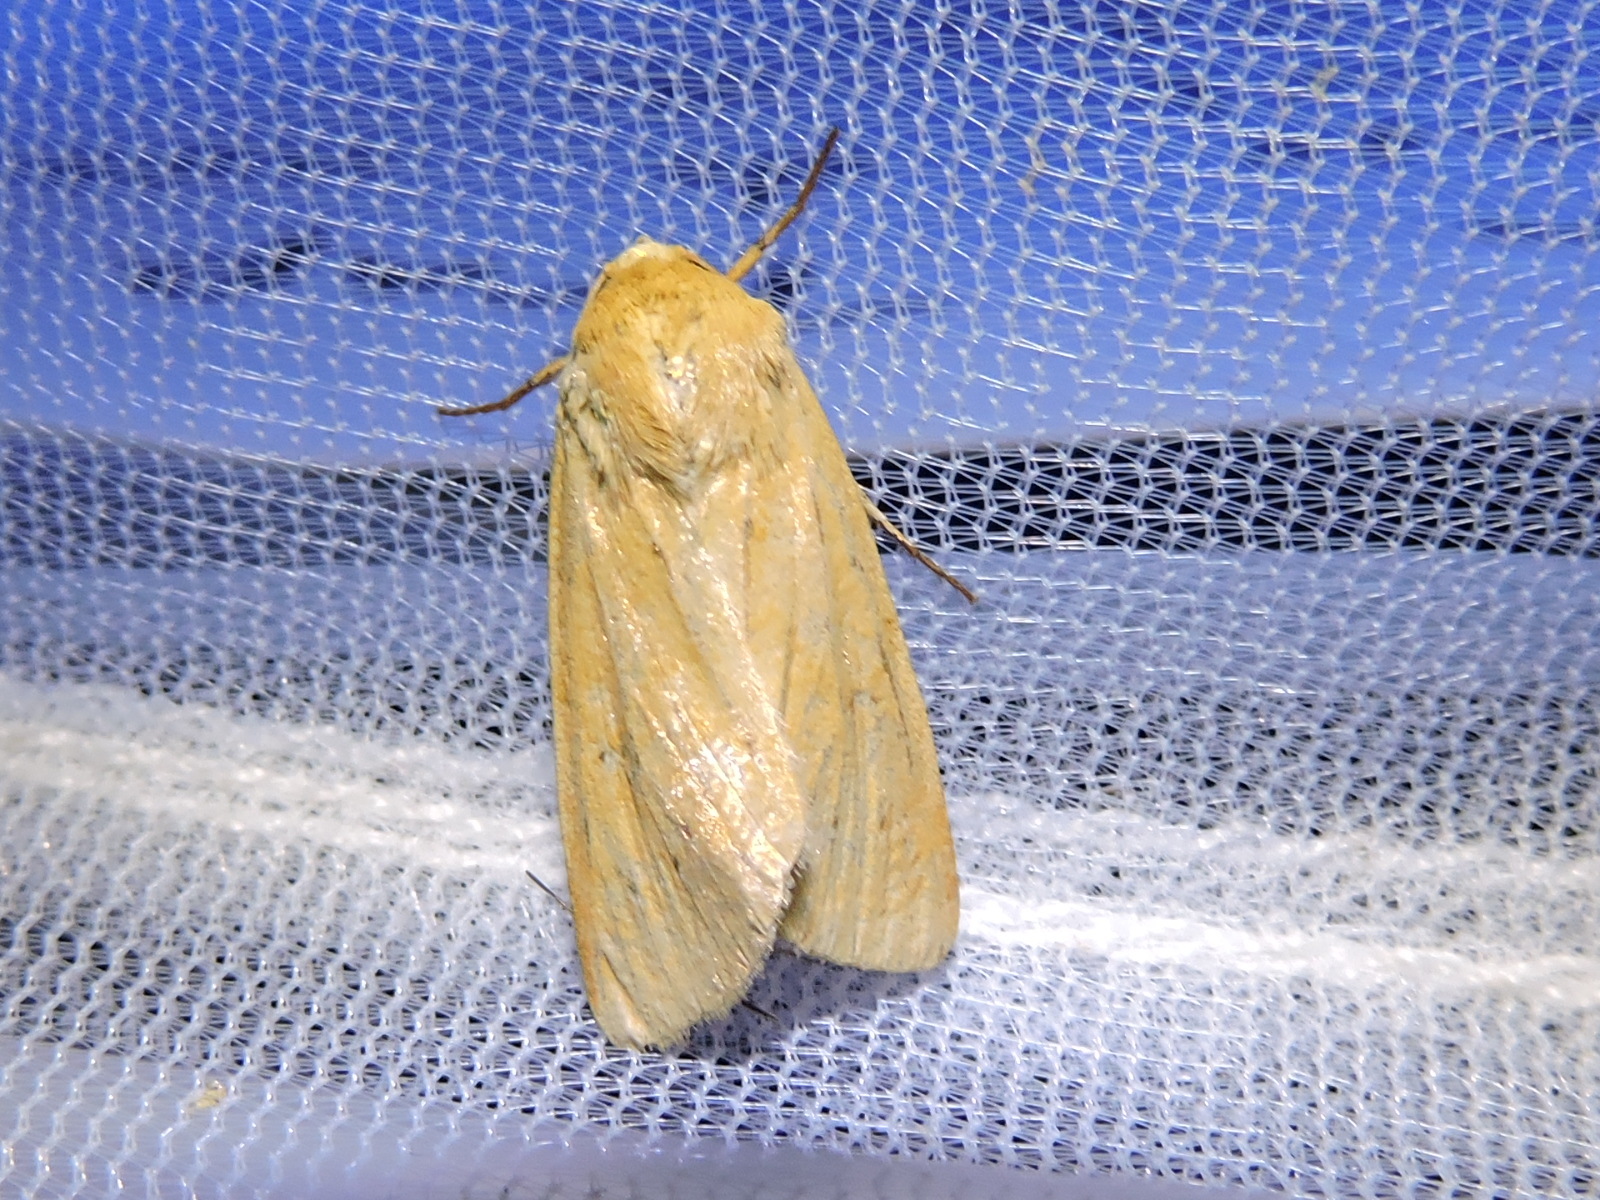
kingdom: Animalia
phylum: Arthropoda
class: Insecta
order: Lepidoptera
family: Noctuidae
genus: Helicoverpa
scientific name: Helicoverpa zea
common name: Bollworm
